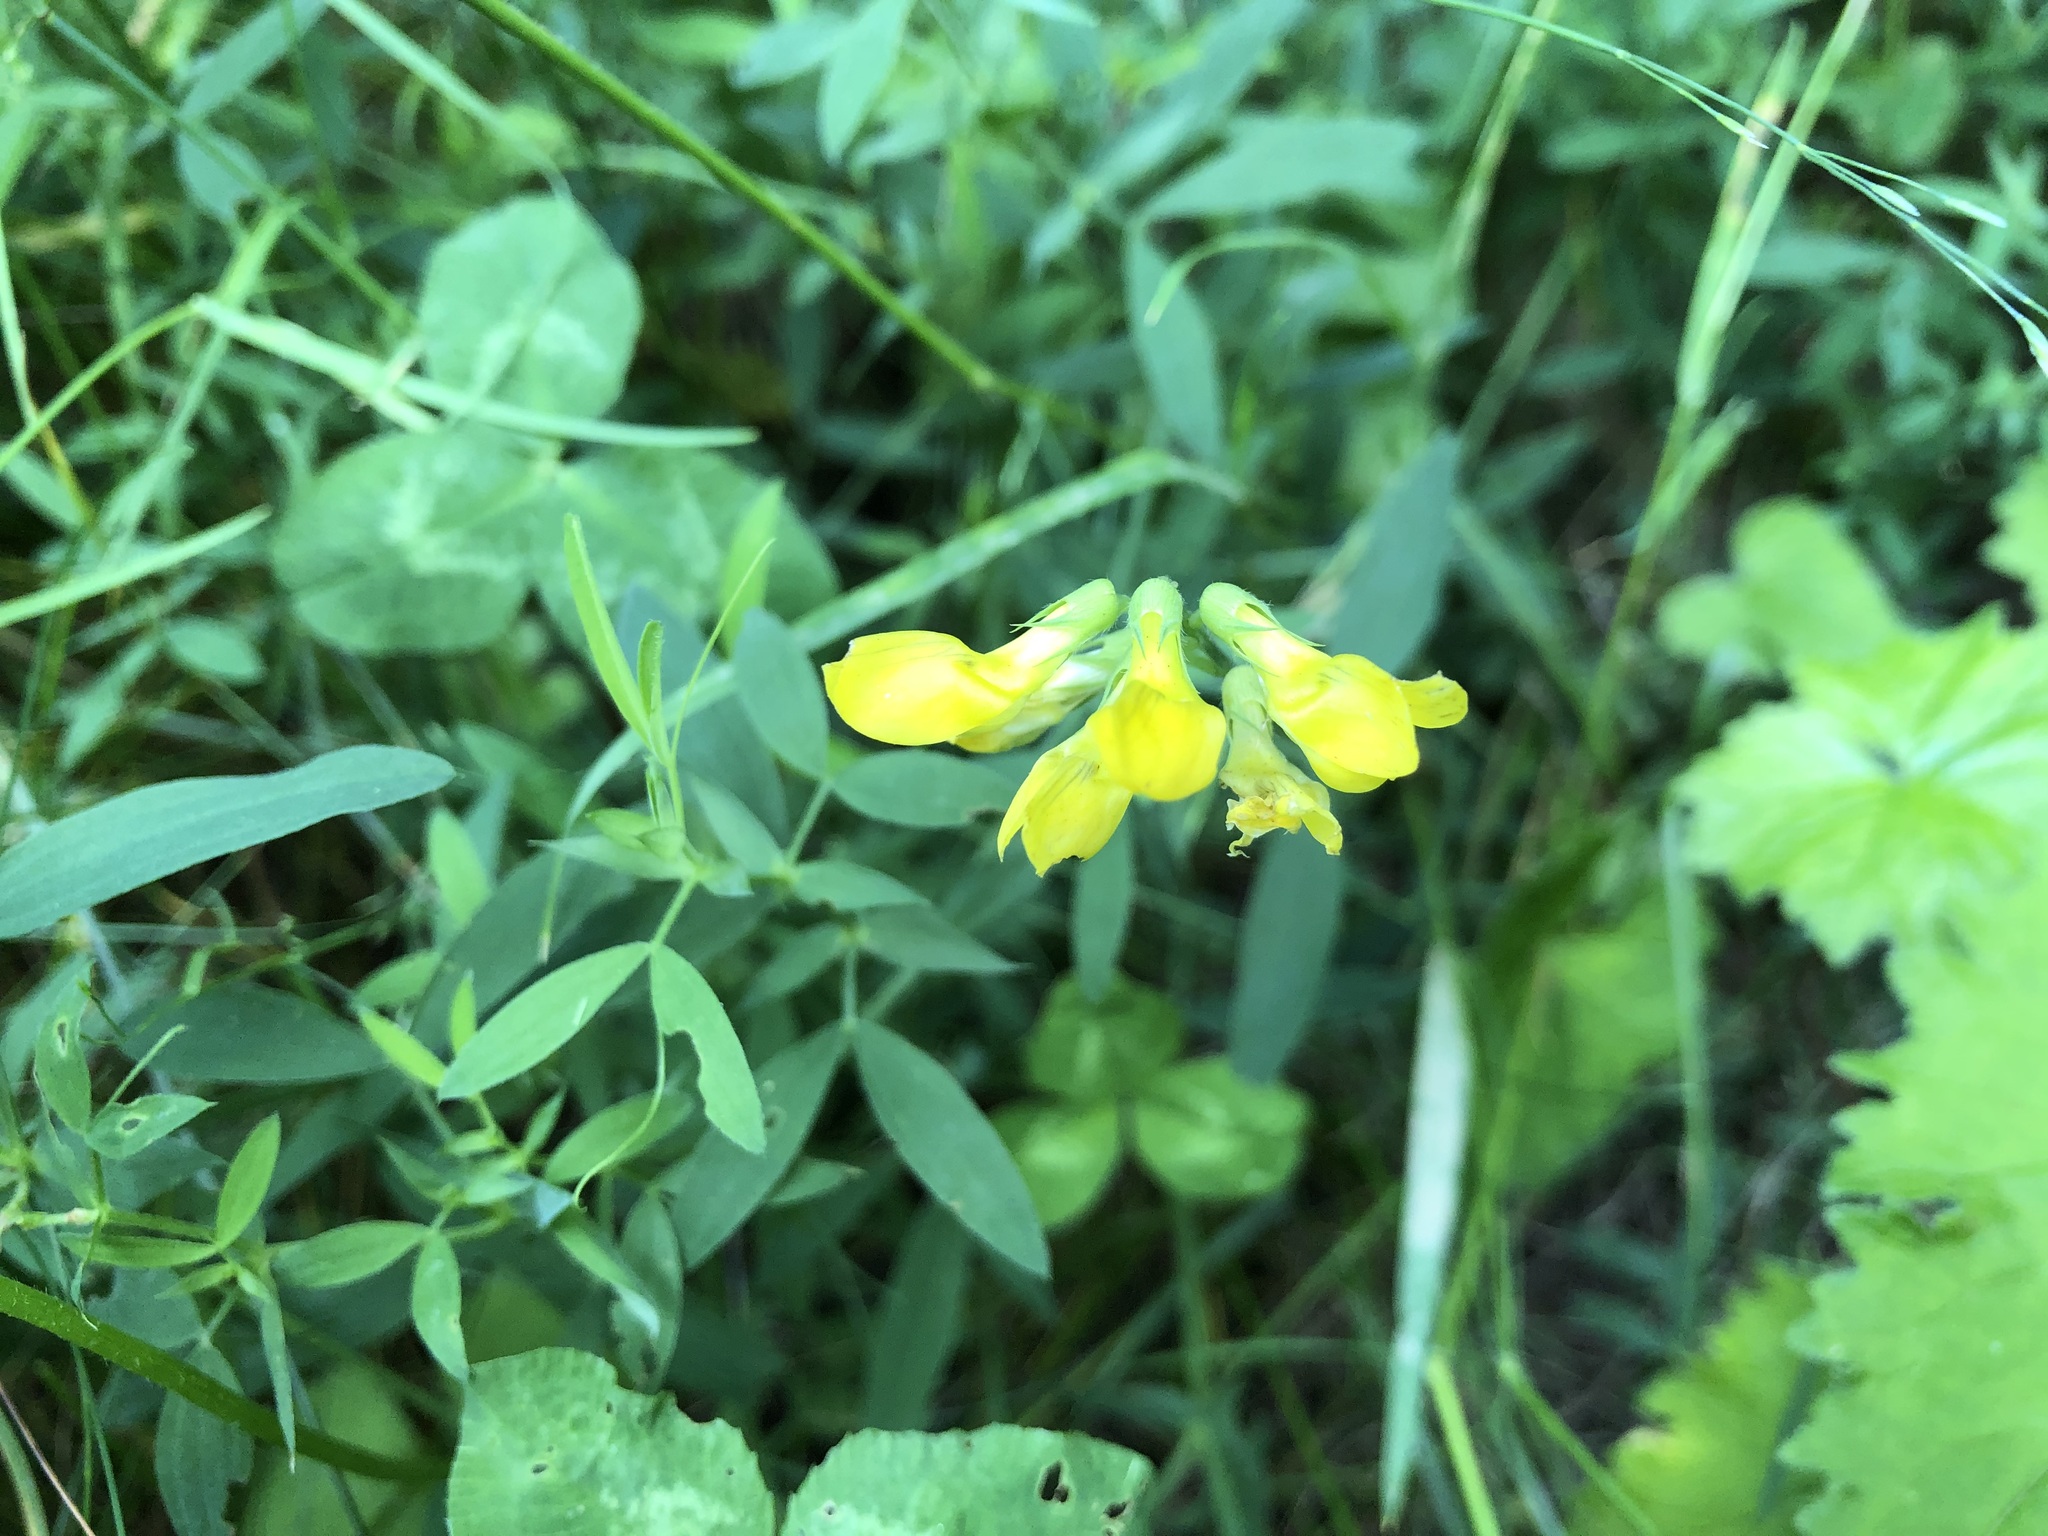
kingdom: Plantae
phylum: Tracheophyta
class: Magnoliopsida
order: Fabales
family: Fabaceae
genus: Lathyrus
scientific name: Lathyrus pratensis
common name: Meadow vetchling
